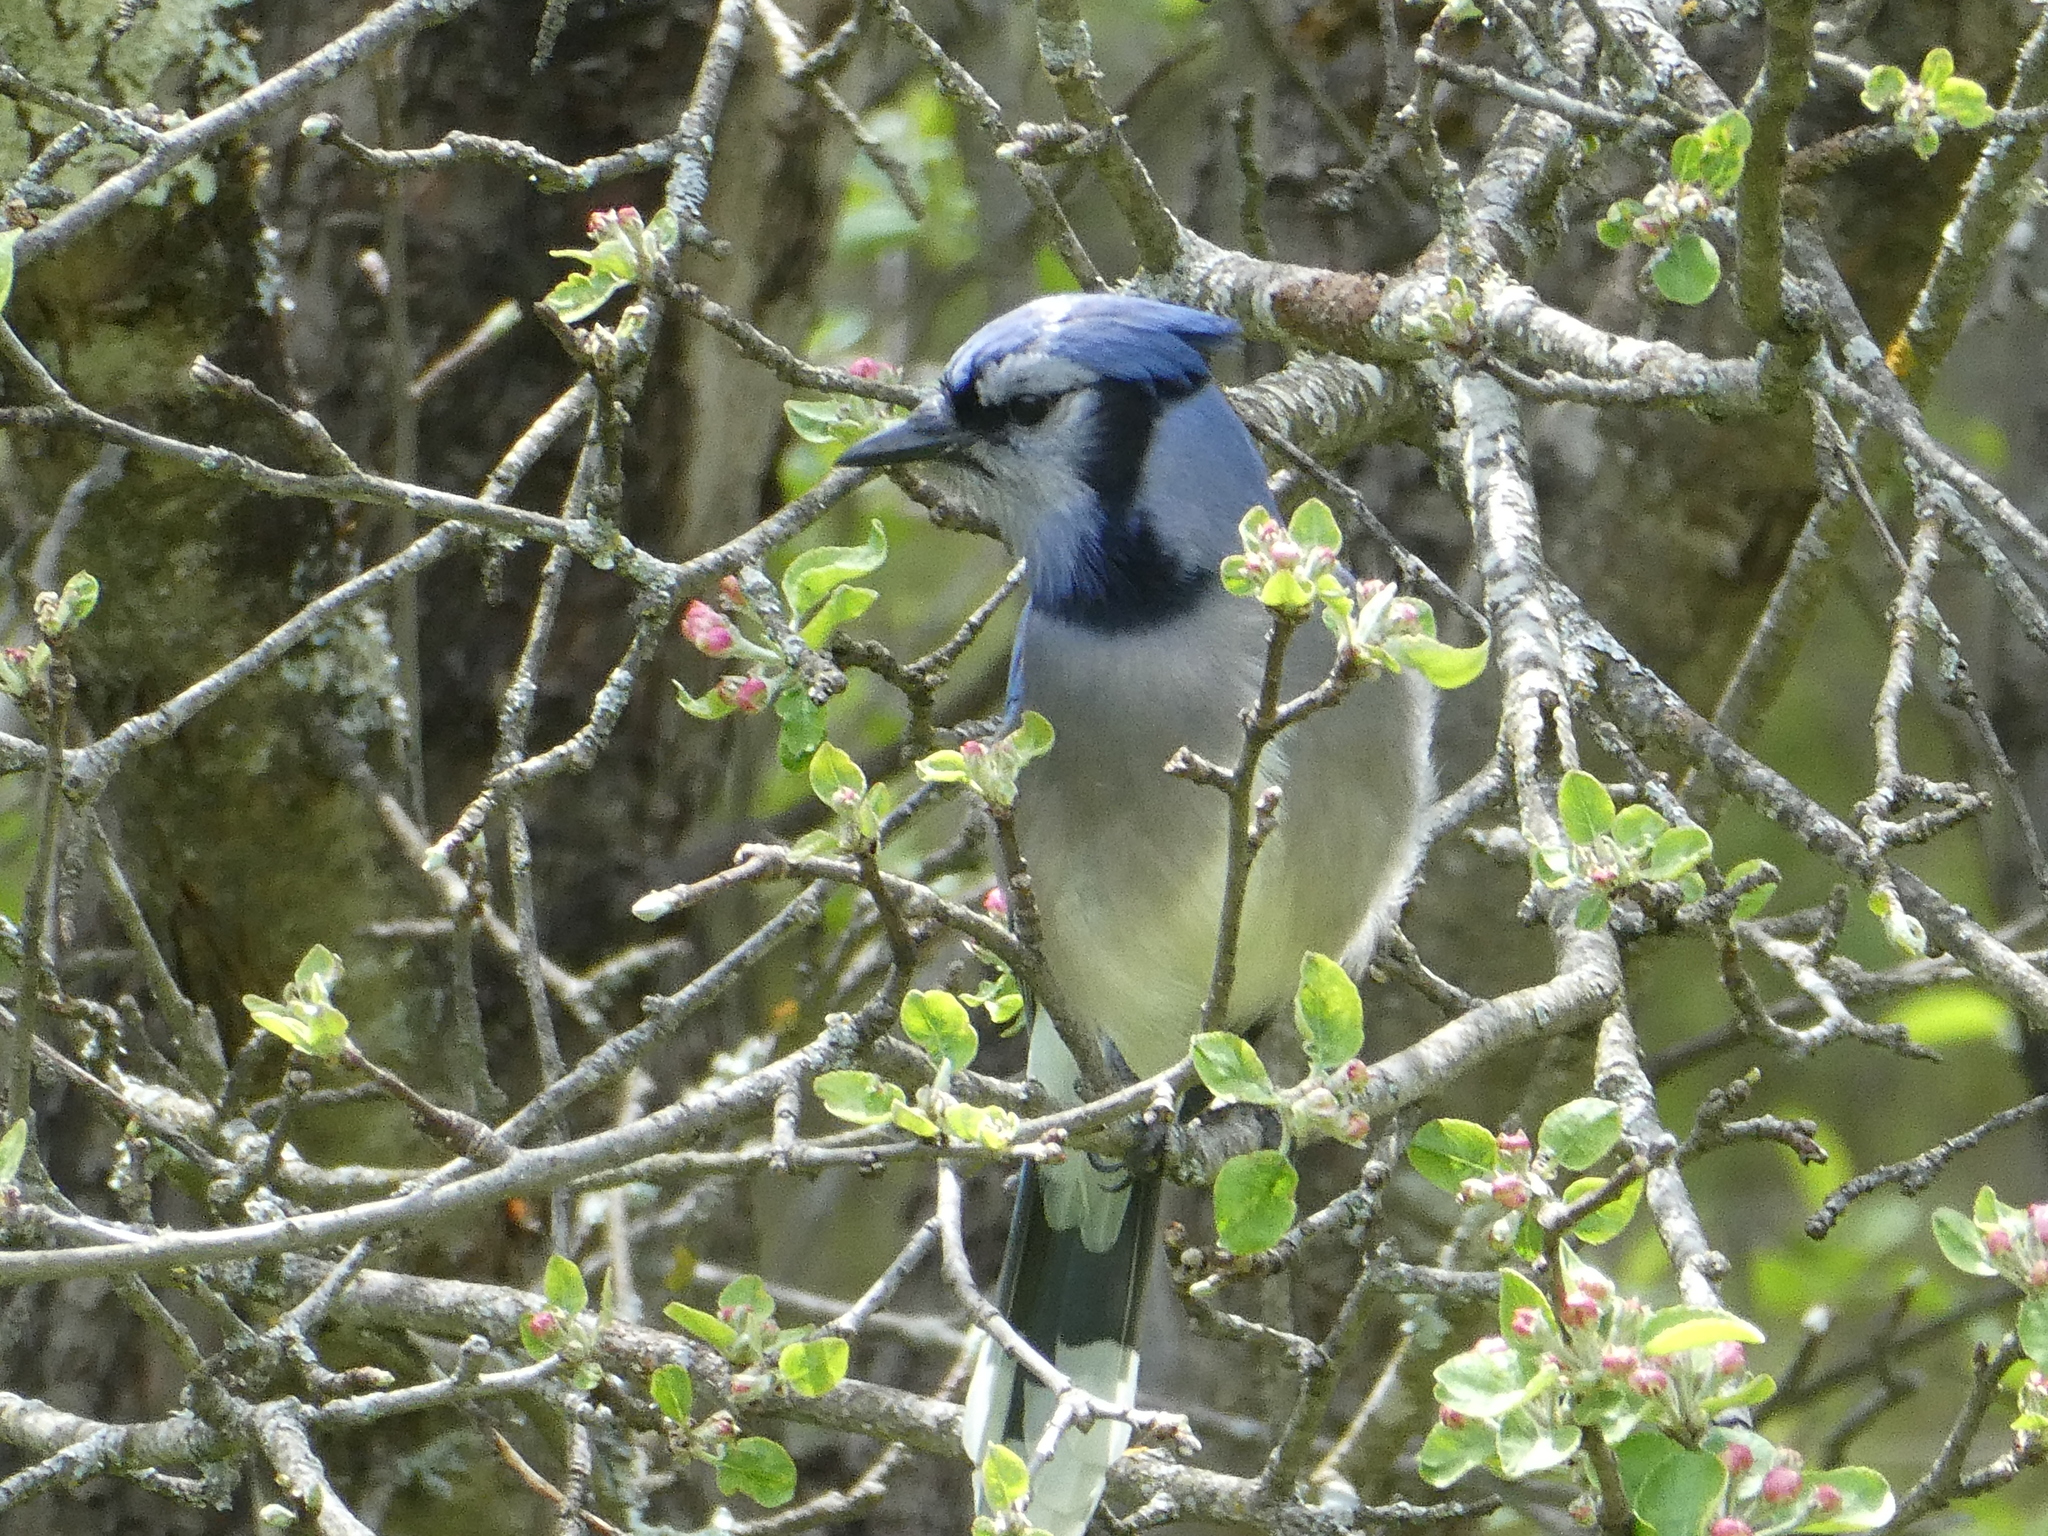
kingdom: Animalia
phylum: Chordata
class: Aves
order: Passeriformes
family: Corvidae
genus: Cyanocitta
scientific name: Cyanocitta cristata
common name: Blue jay
